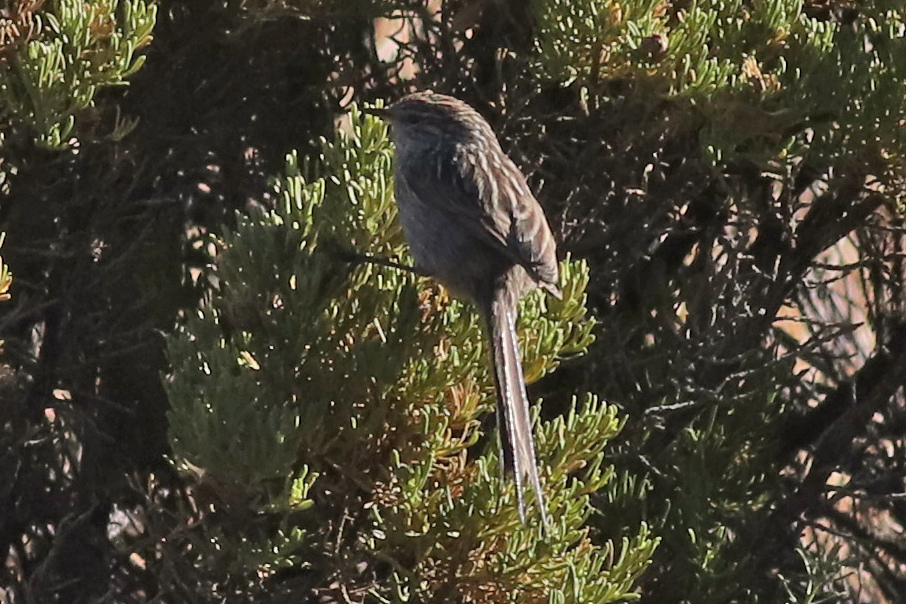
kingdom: Animalia
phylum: Chordata
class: Aves
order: Passeriformes
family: Furnariidae
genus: Leptasthenura
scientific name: Leptasthenura striata
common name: Streak-backed tit-spinetail
